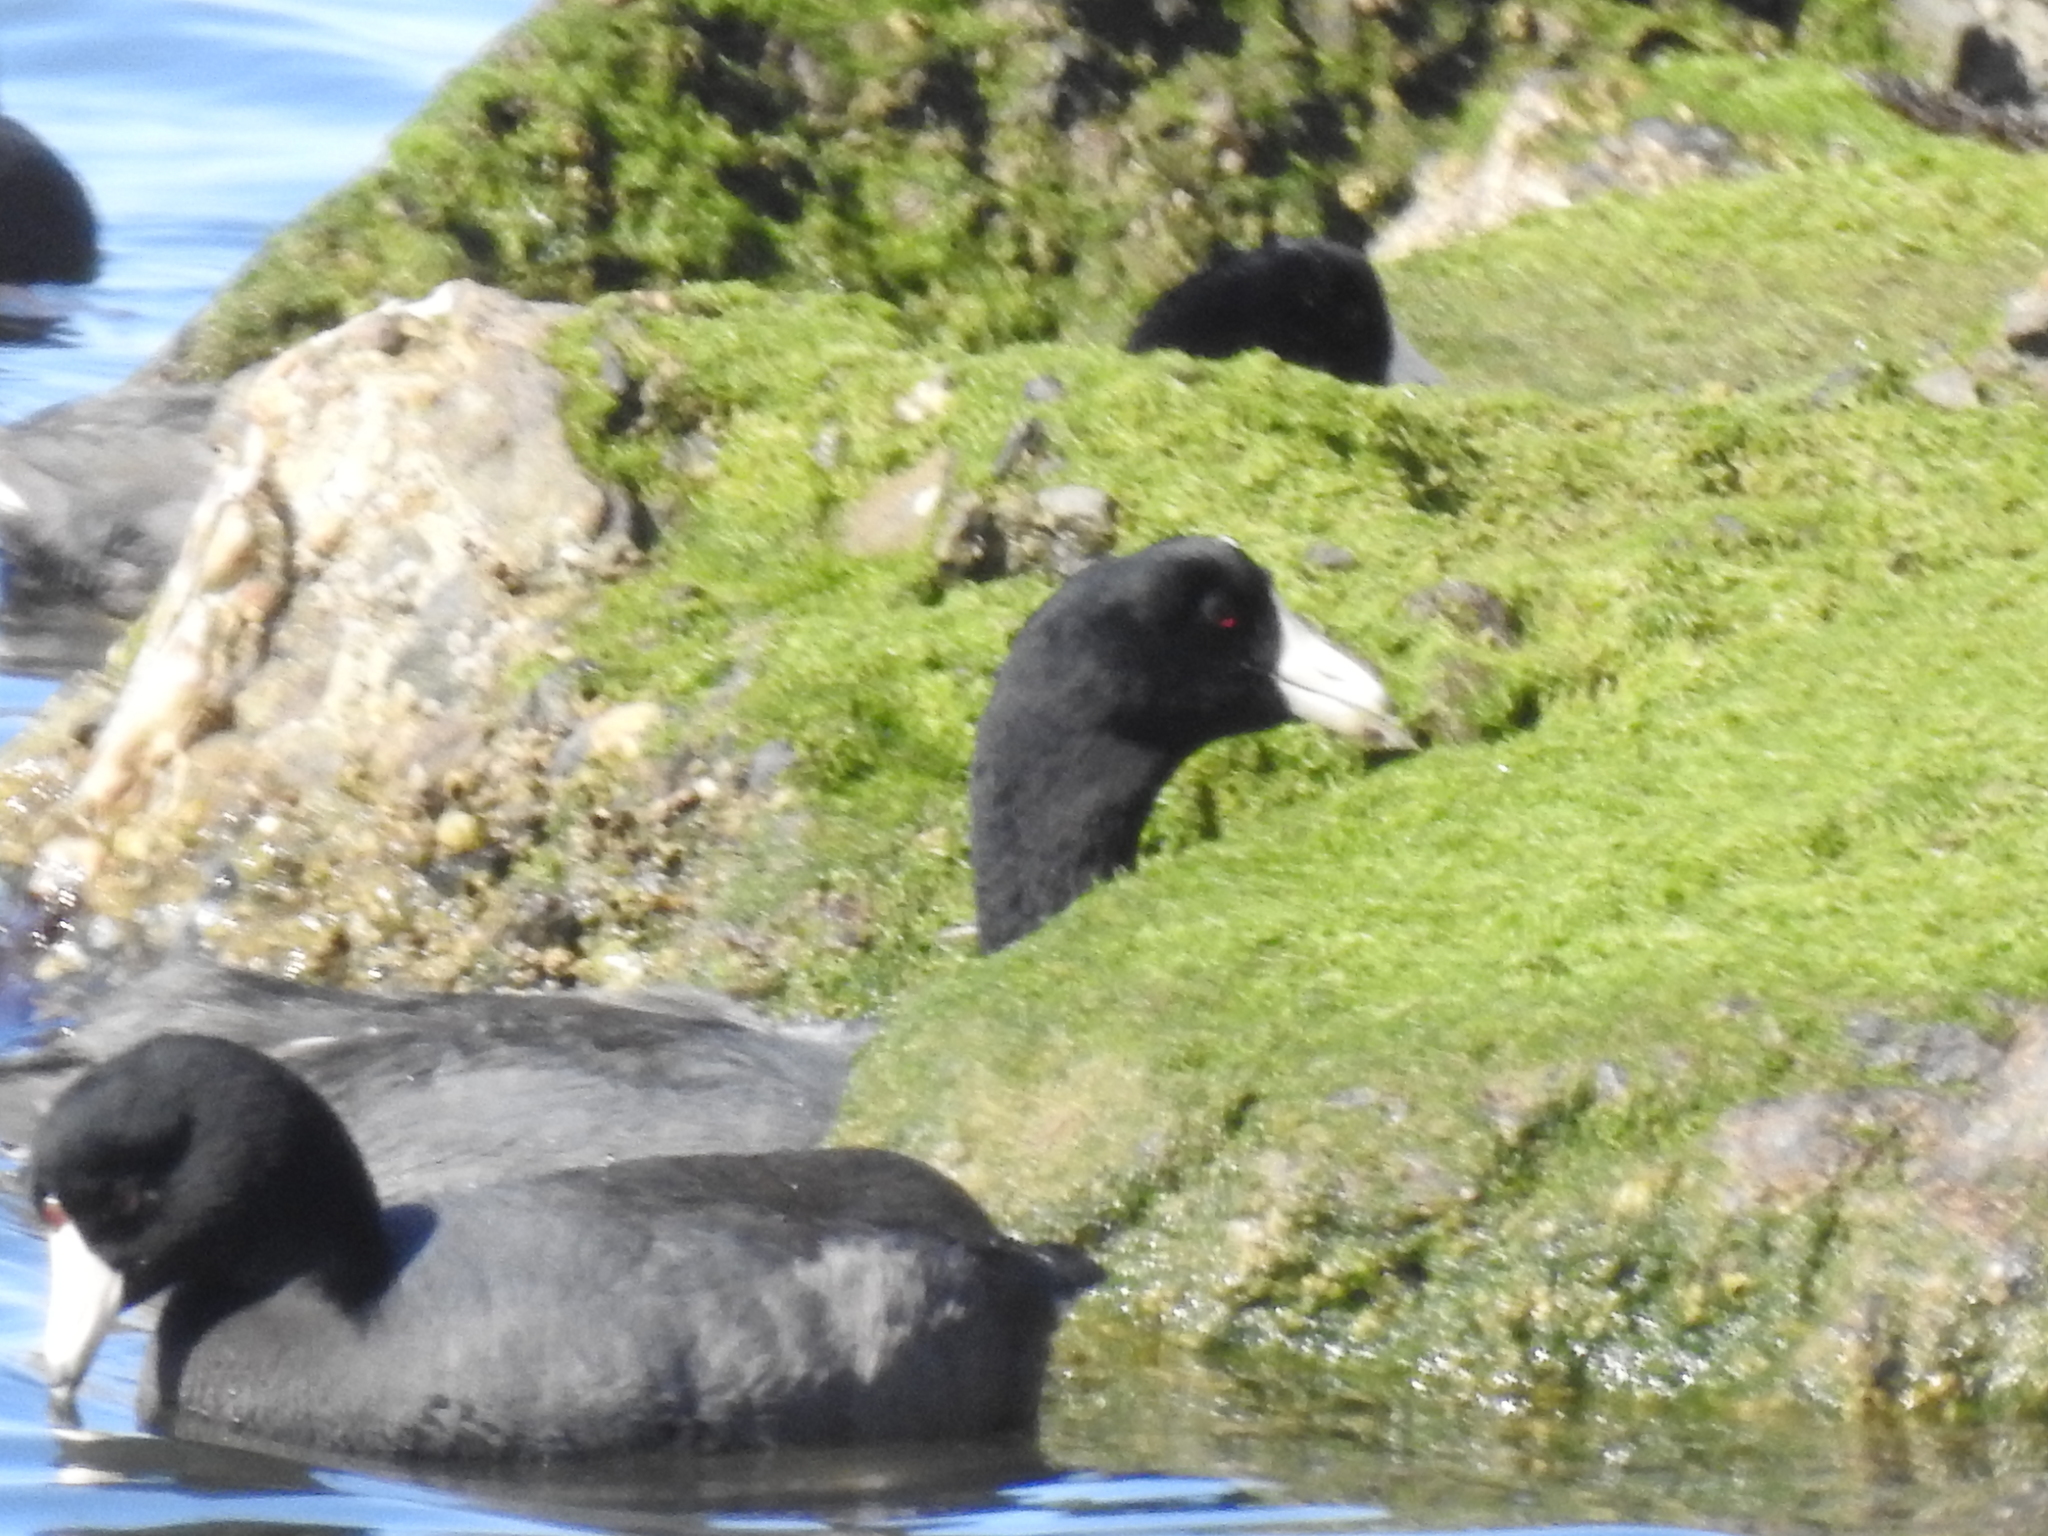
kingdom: Animalia
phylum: Chordata
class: Aves
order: Gruiformes
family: Rallidae
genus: Fulica
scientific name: Fulica americana
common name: American coot
